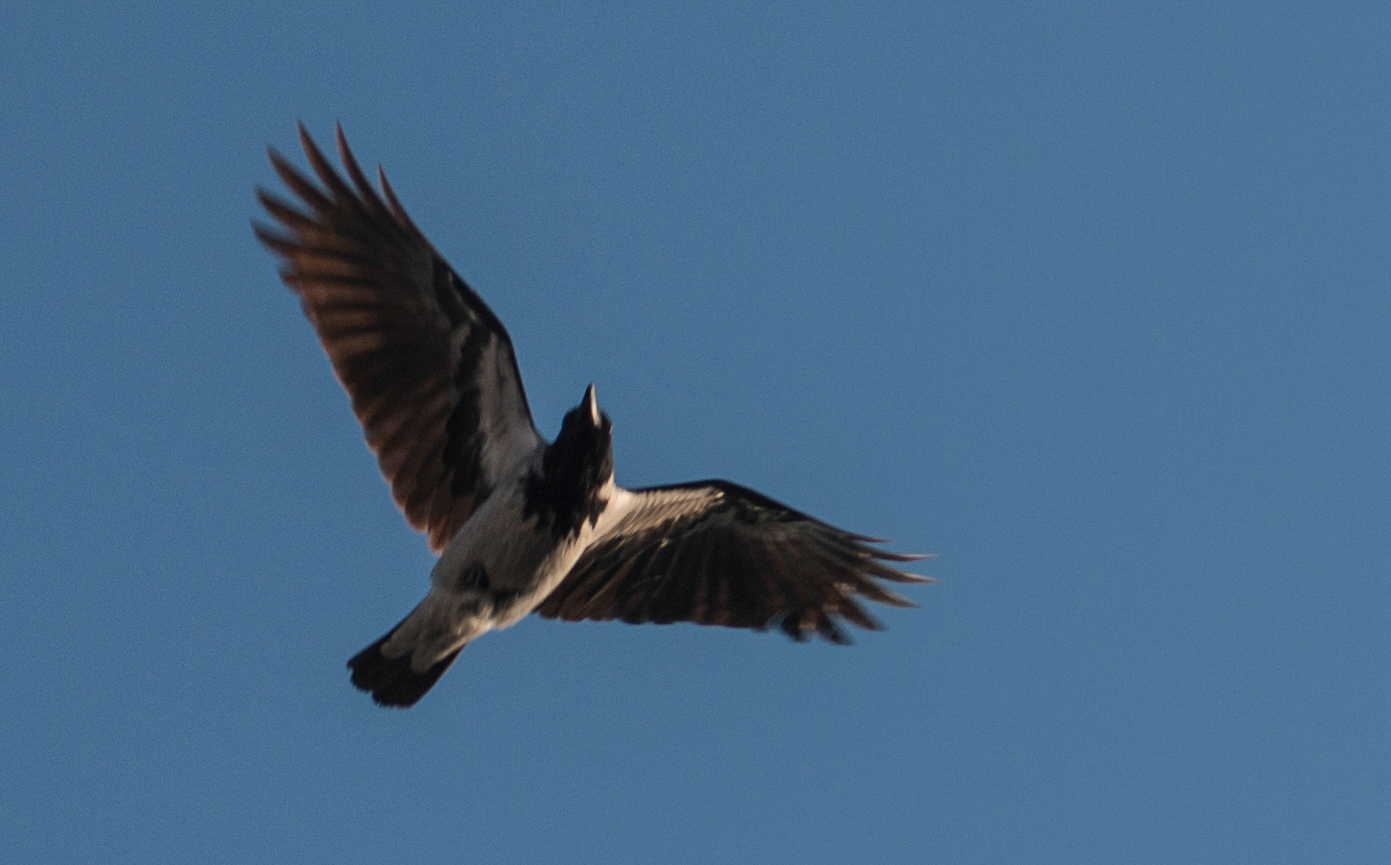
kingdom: Animalia
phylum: Chordata
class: Aves
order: Passeriformes
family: Corvidae
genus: Corvus
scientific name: Corvus cornix
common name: Hooded crow
